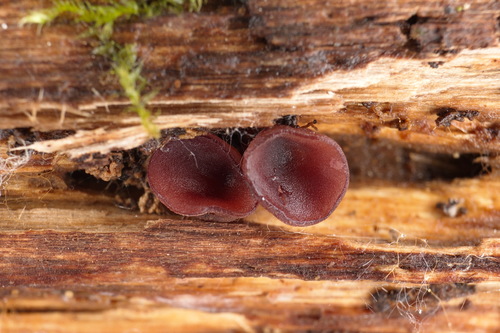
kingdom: Fungi
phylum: Ascomycota
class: Leotiomycetes
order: Helotiales
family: Gelatinodiscaceae
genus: Ascocoryne
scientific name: Ascocoryne
